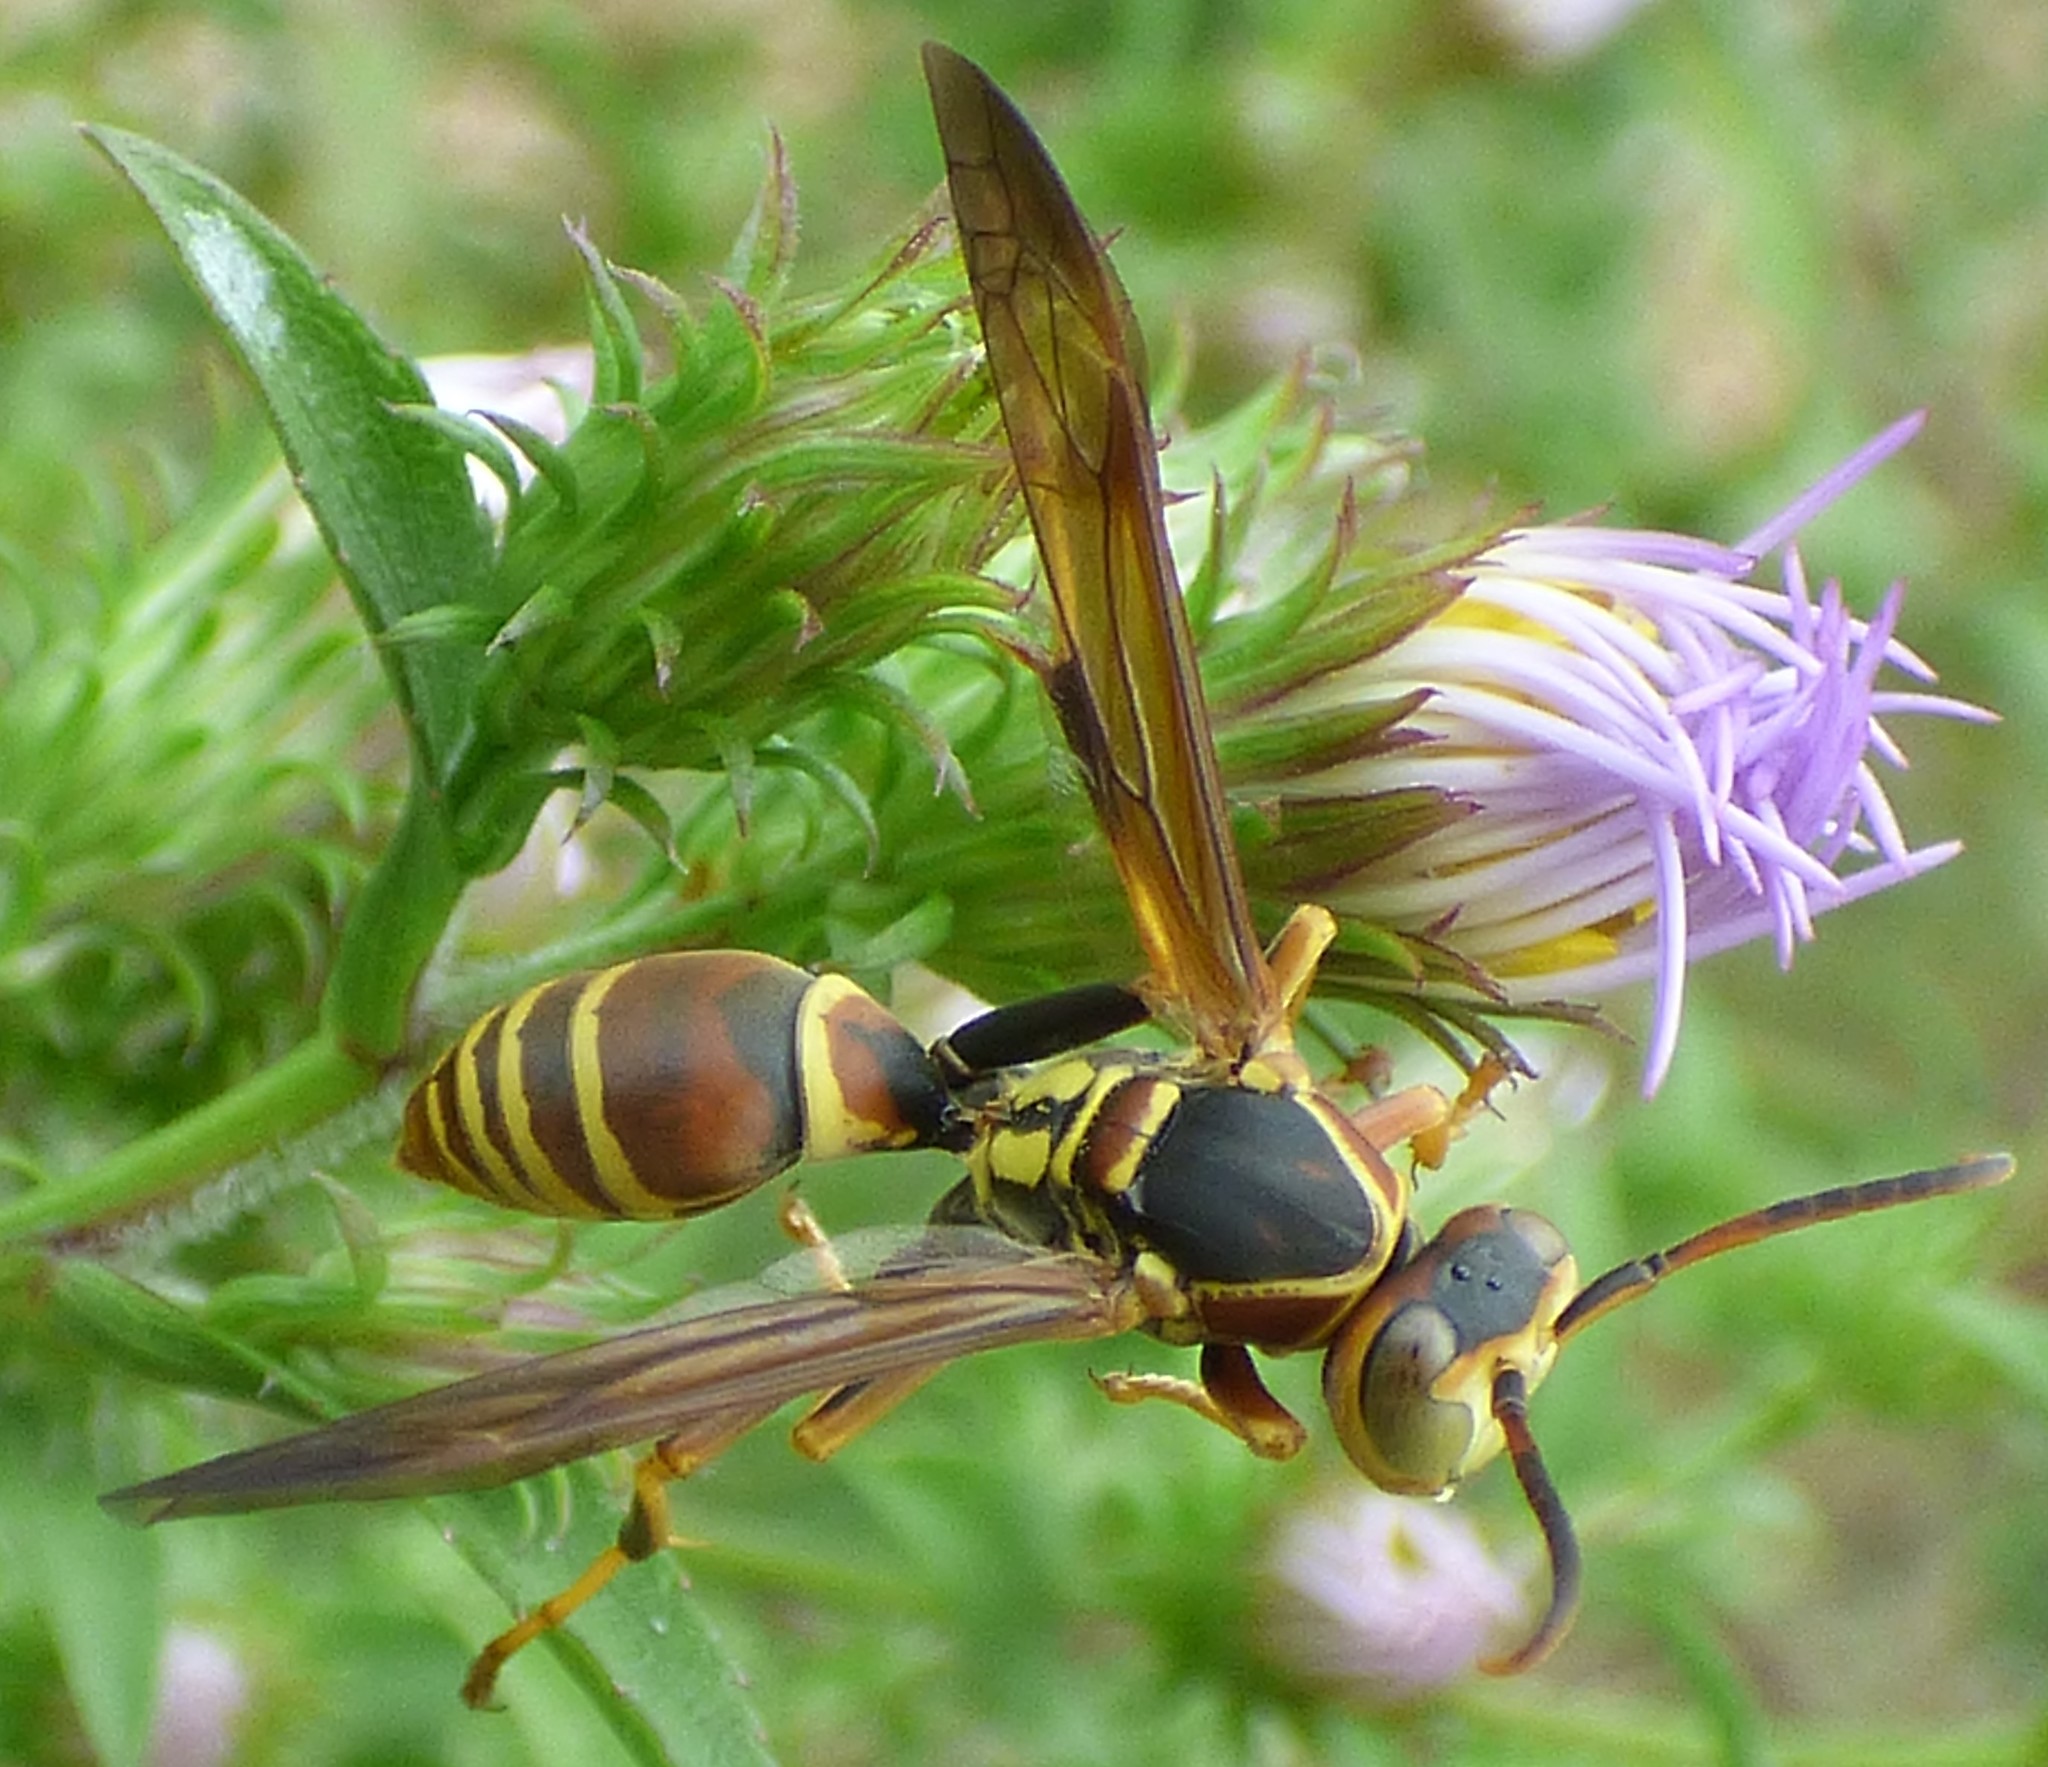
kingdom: Animalia
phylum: Arthropoda
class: Insecta
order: Hymenoptera
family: Eumenidae
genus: Polistes
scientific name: Polistes dorsalis
